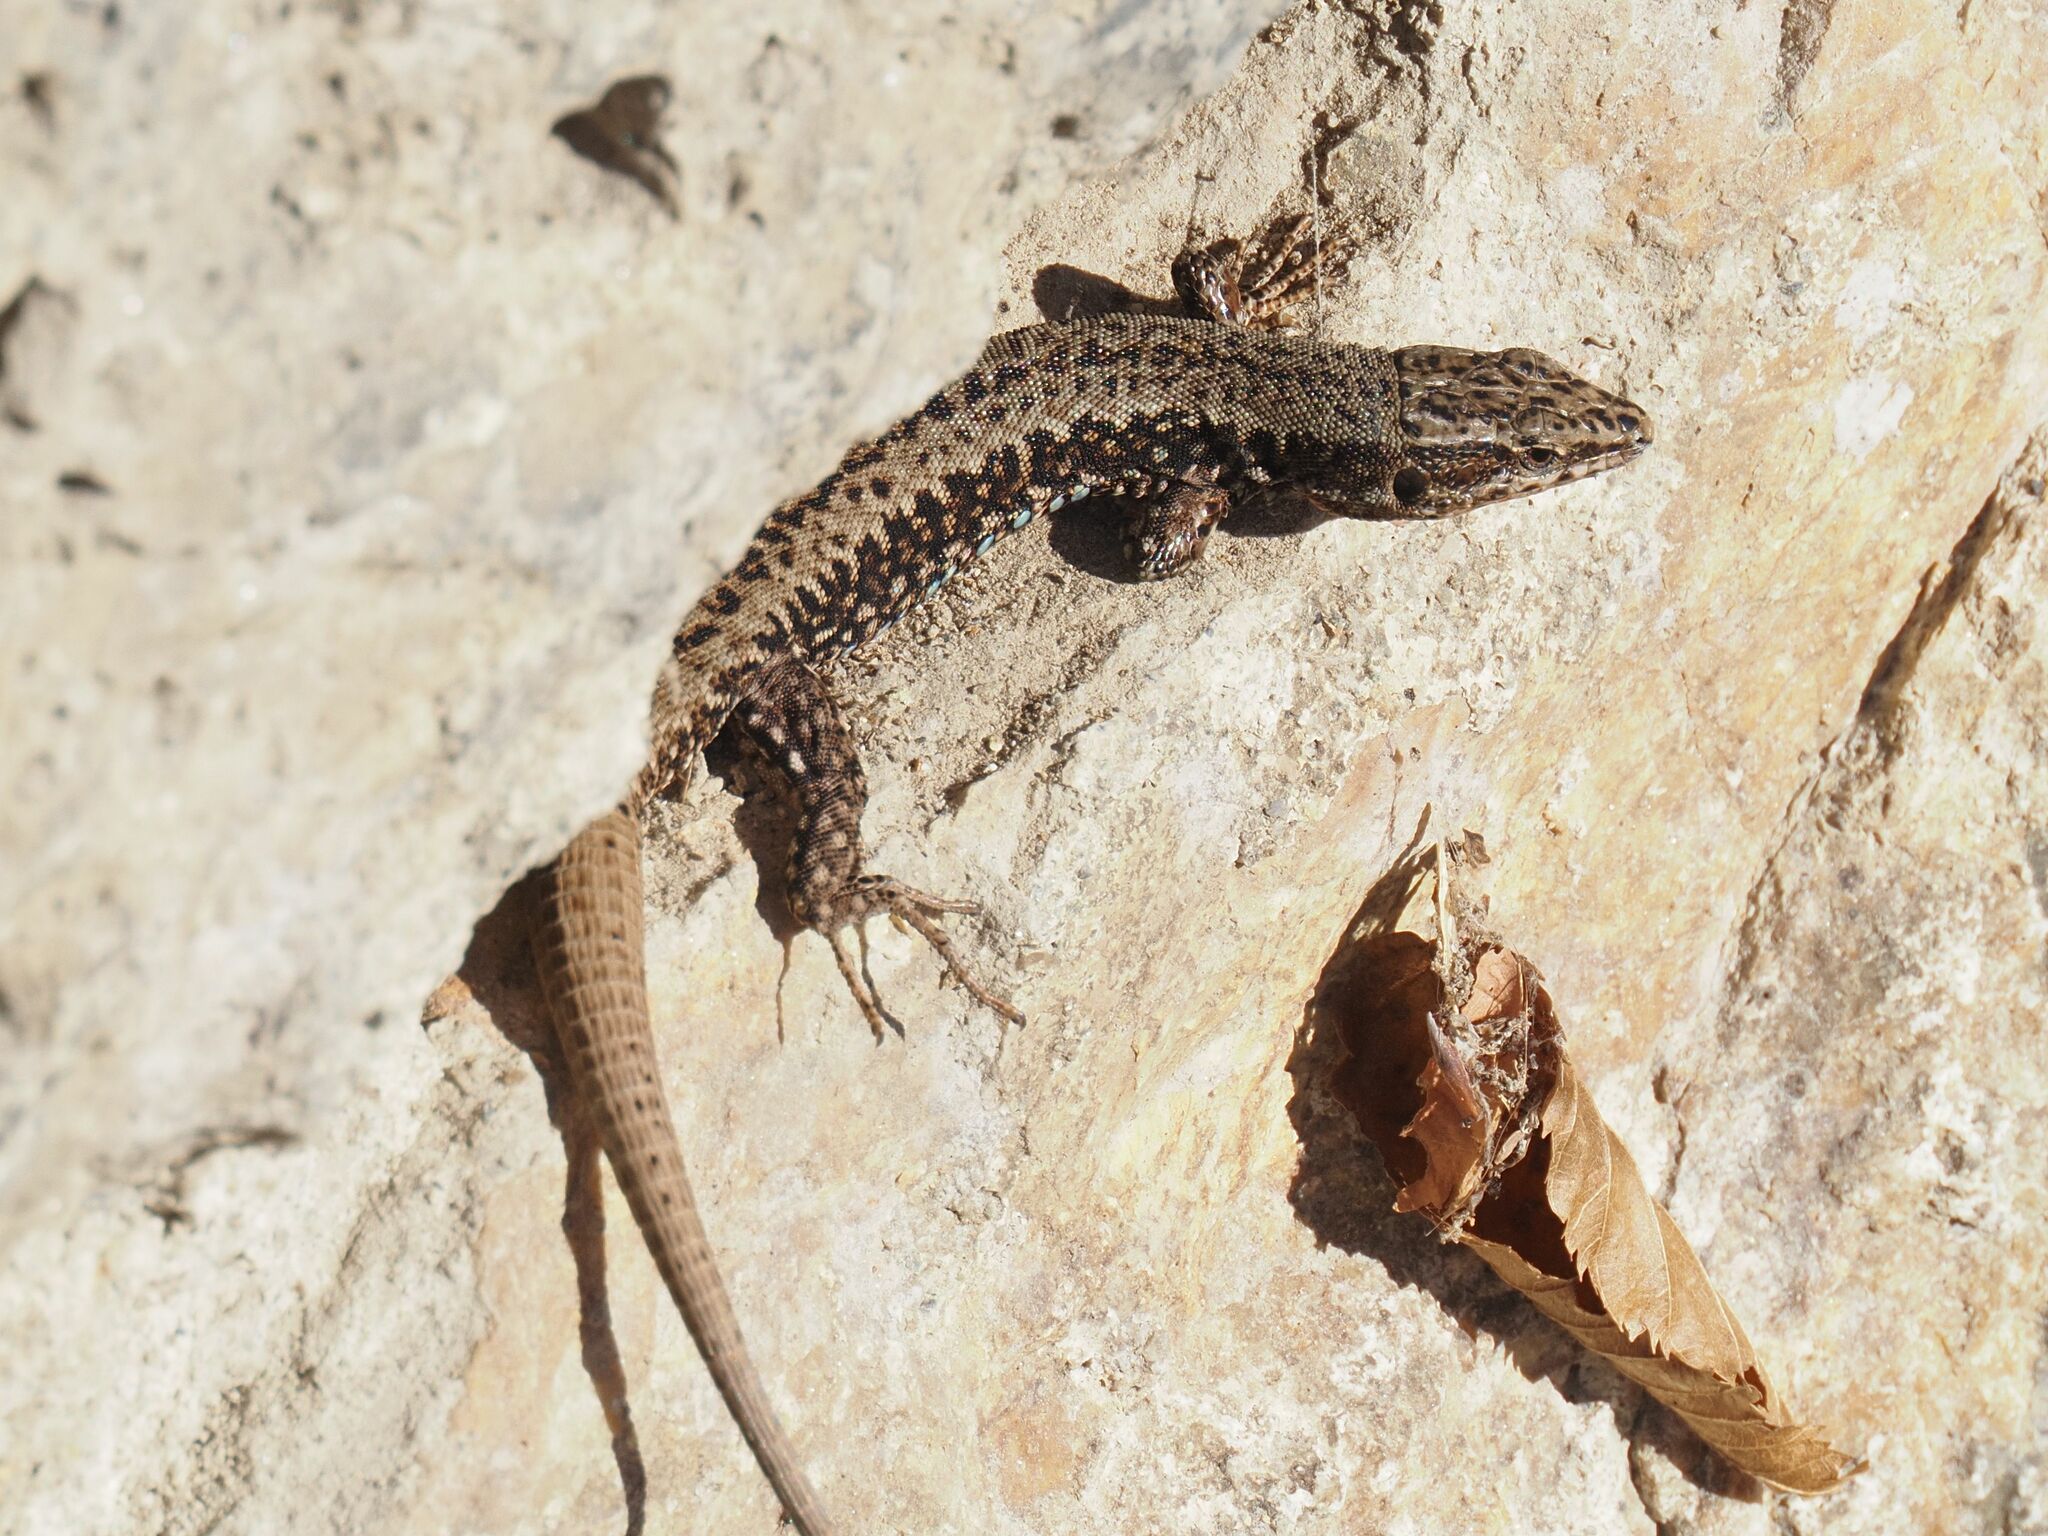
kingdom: Animalia
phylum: Chordata
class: Squamata
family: Lacertidae
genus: Podarcis
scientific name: Podarcis muralis
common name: Common wall lizard
